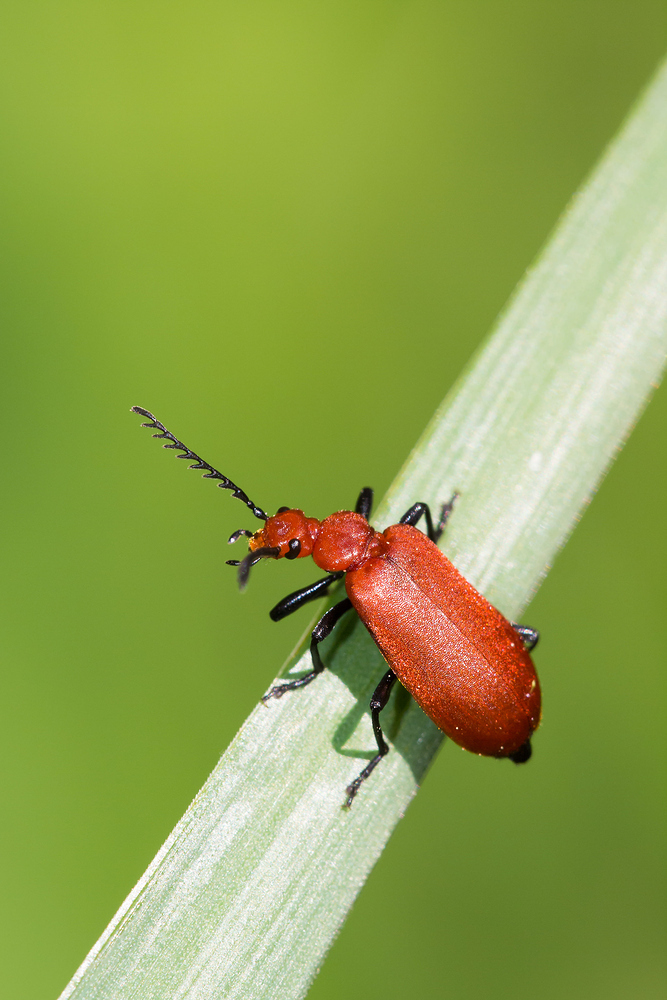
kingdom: Animalia
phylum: Arthropoda
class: Insecta
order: Coleoptera
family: Pyrochroidae
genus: Pyrochroa
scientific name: Pyrochroa serraticornis
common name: Red-headed cardinal beetle
